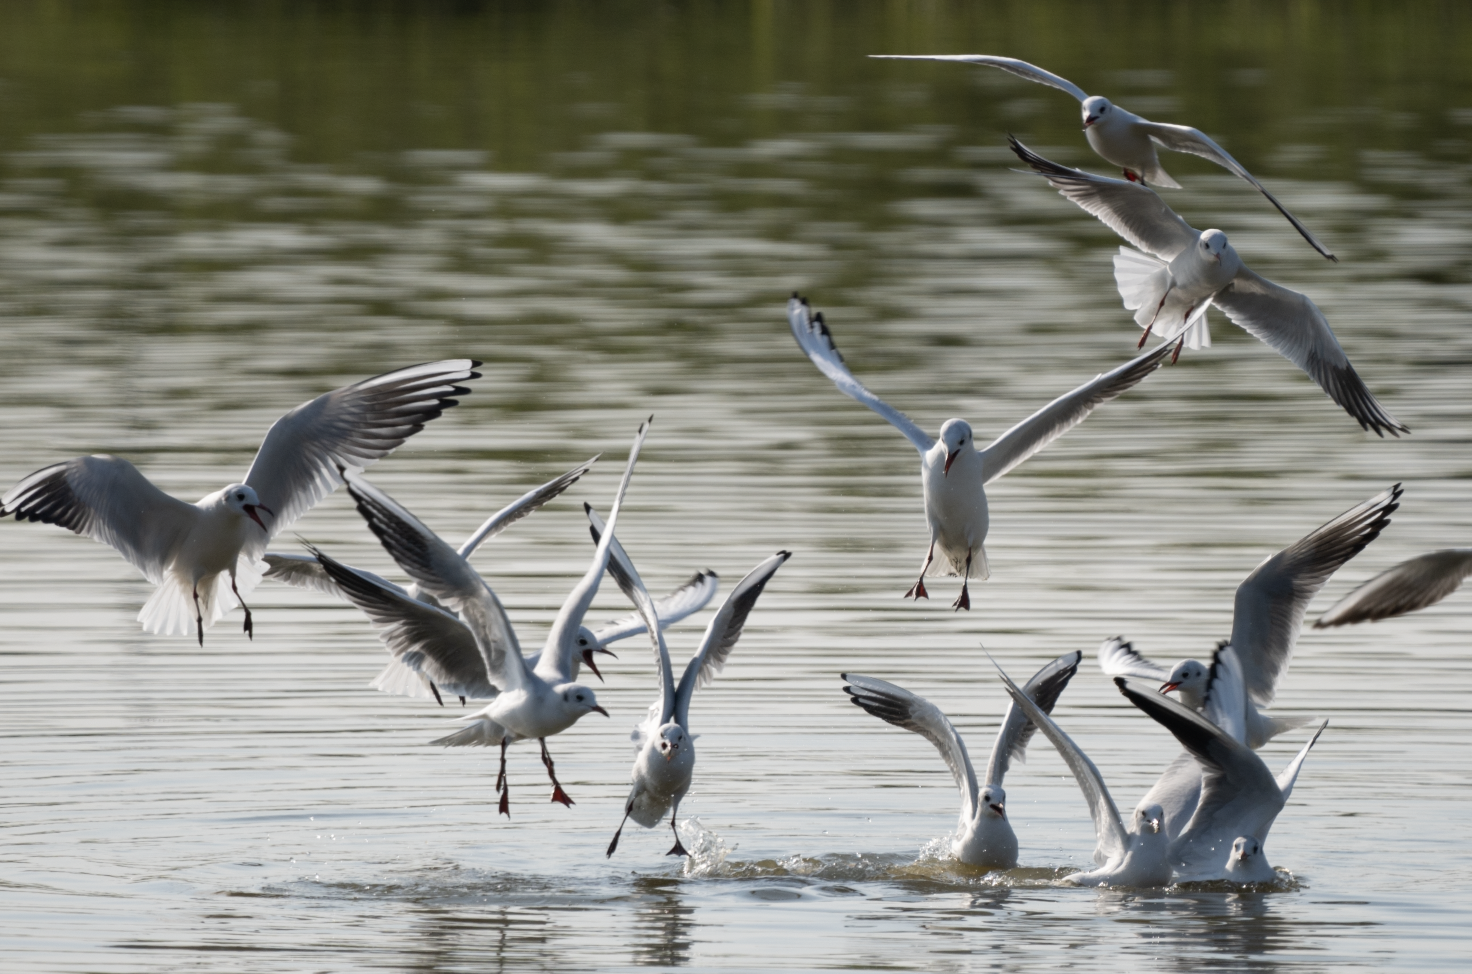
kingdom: Animalia
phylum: Chordata
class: Aves
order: Charadriiformes
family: Laridae
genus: Chroicocephalus
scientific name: Chroicocephalus ridibundus
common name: Black-headed gull
